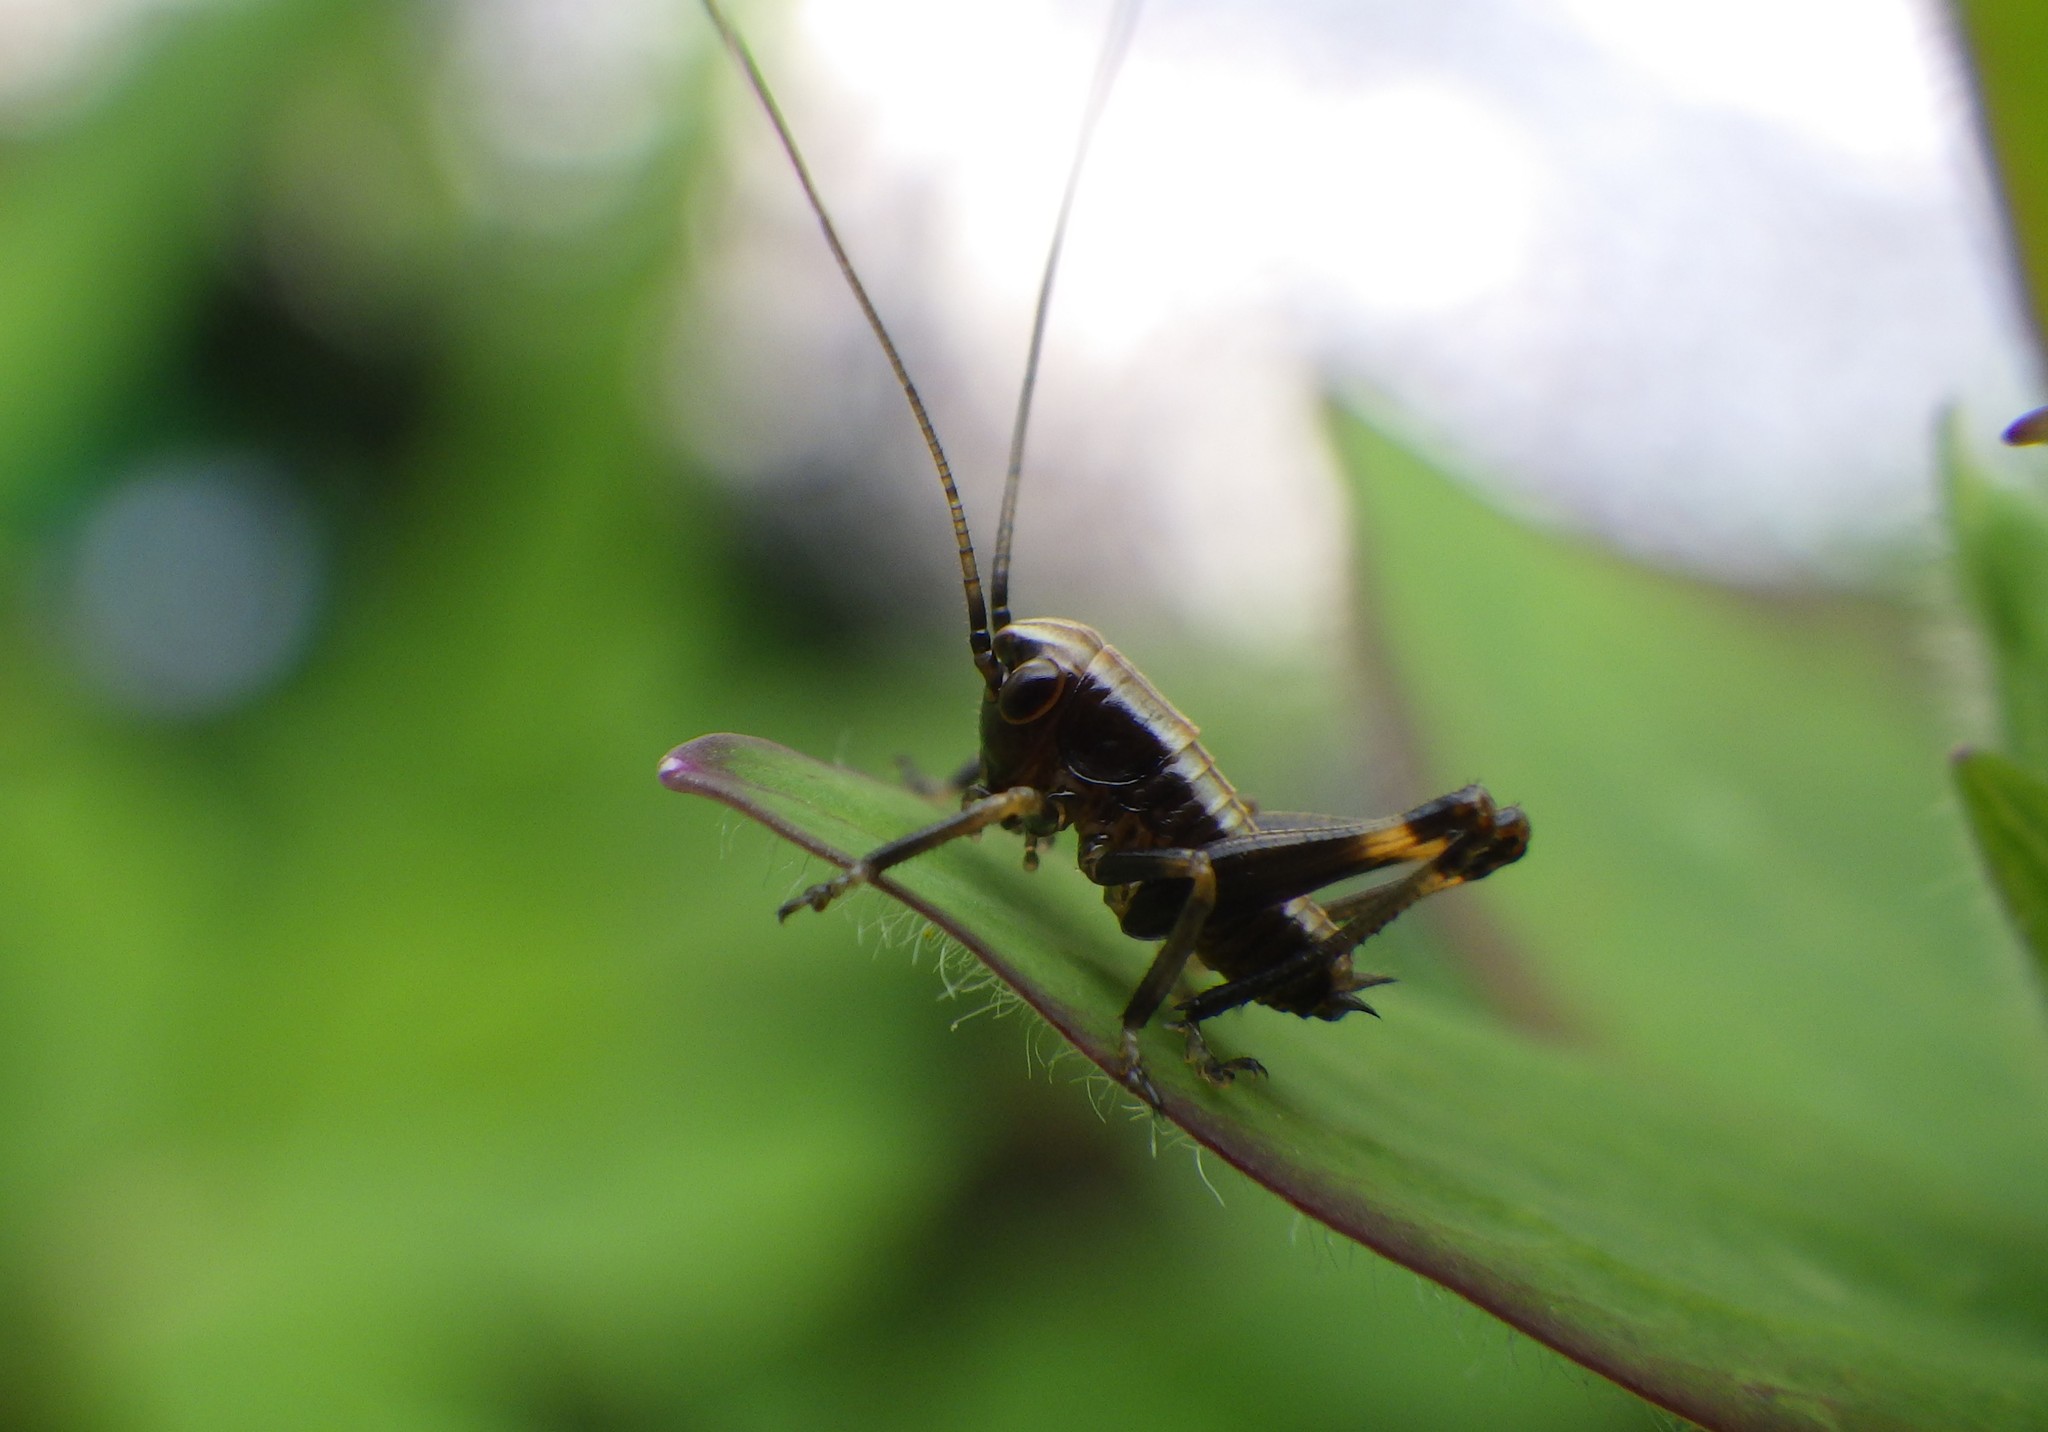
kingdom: Animalia
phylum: Arthropoda
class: Insecta
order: Orthoptera
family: Tettigoniidae
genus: Pholidoptera
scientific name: Pholidoptera griseoaptera
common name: Dark bush-cricket
